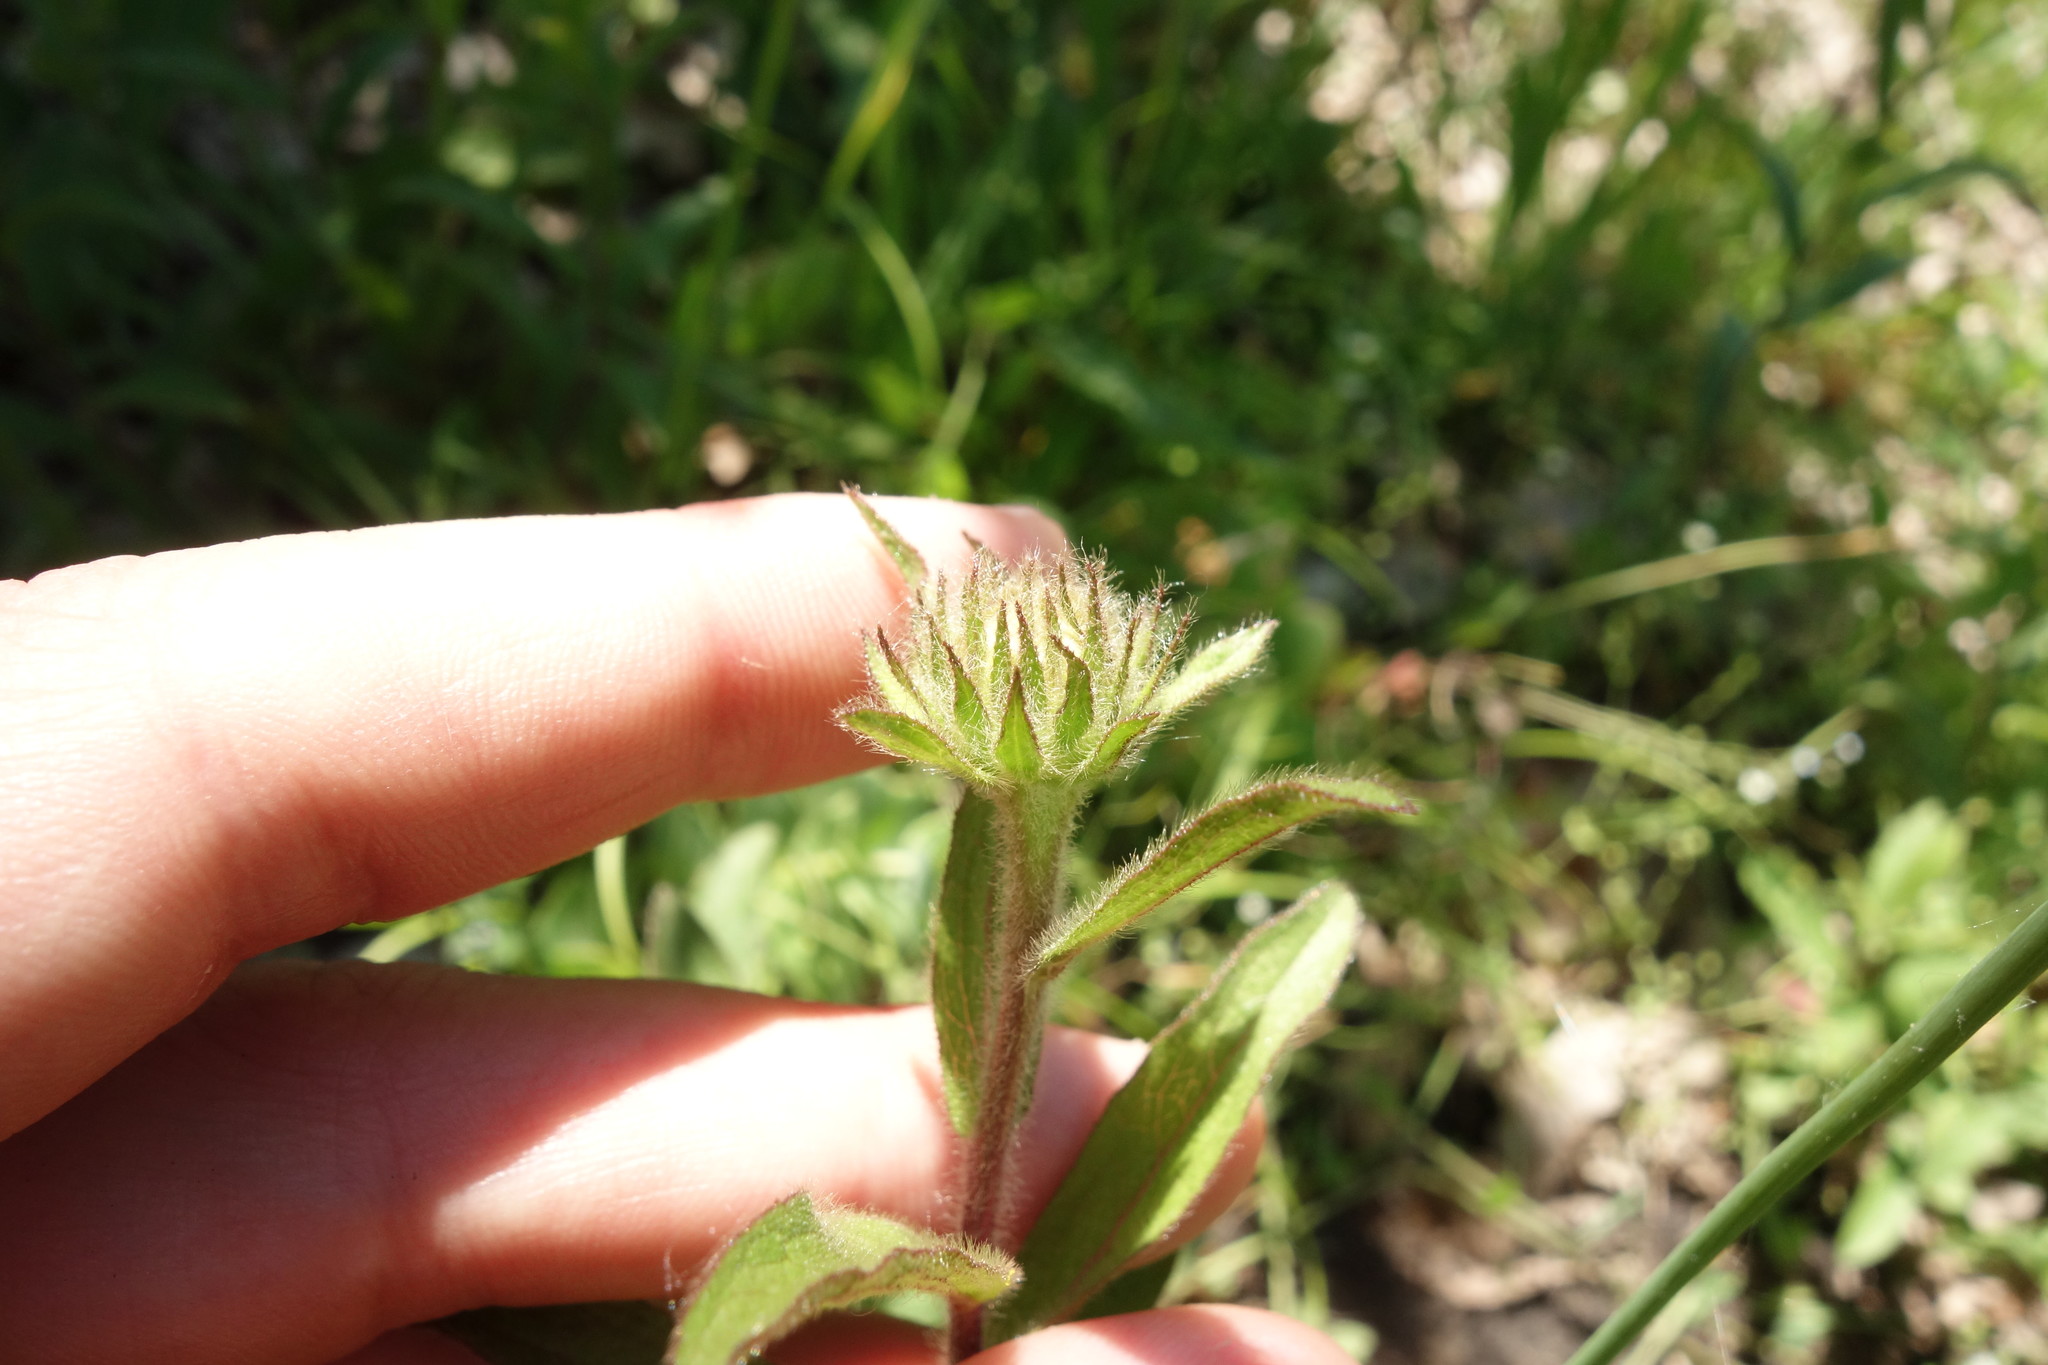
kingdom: Plantae
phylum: Tracheophyta
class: Magnoliopsida
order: Asterales
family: Asteraceae
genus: Pentanema
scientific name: Pentanema hirtum
